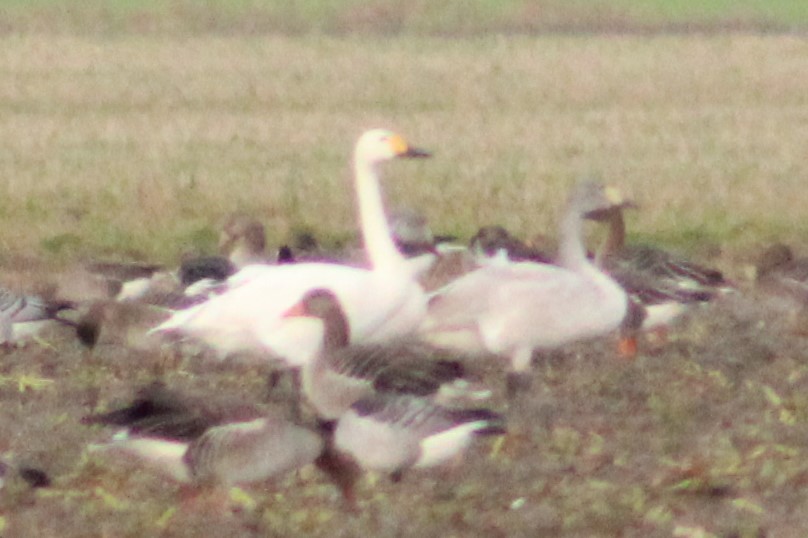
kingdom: Animalia
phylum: Chordata
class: Aves
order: Anseriformes
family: Anatidae
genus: Cygnus
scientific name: Cygnus columbianus
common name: Tundra swan
